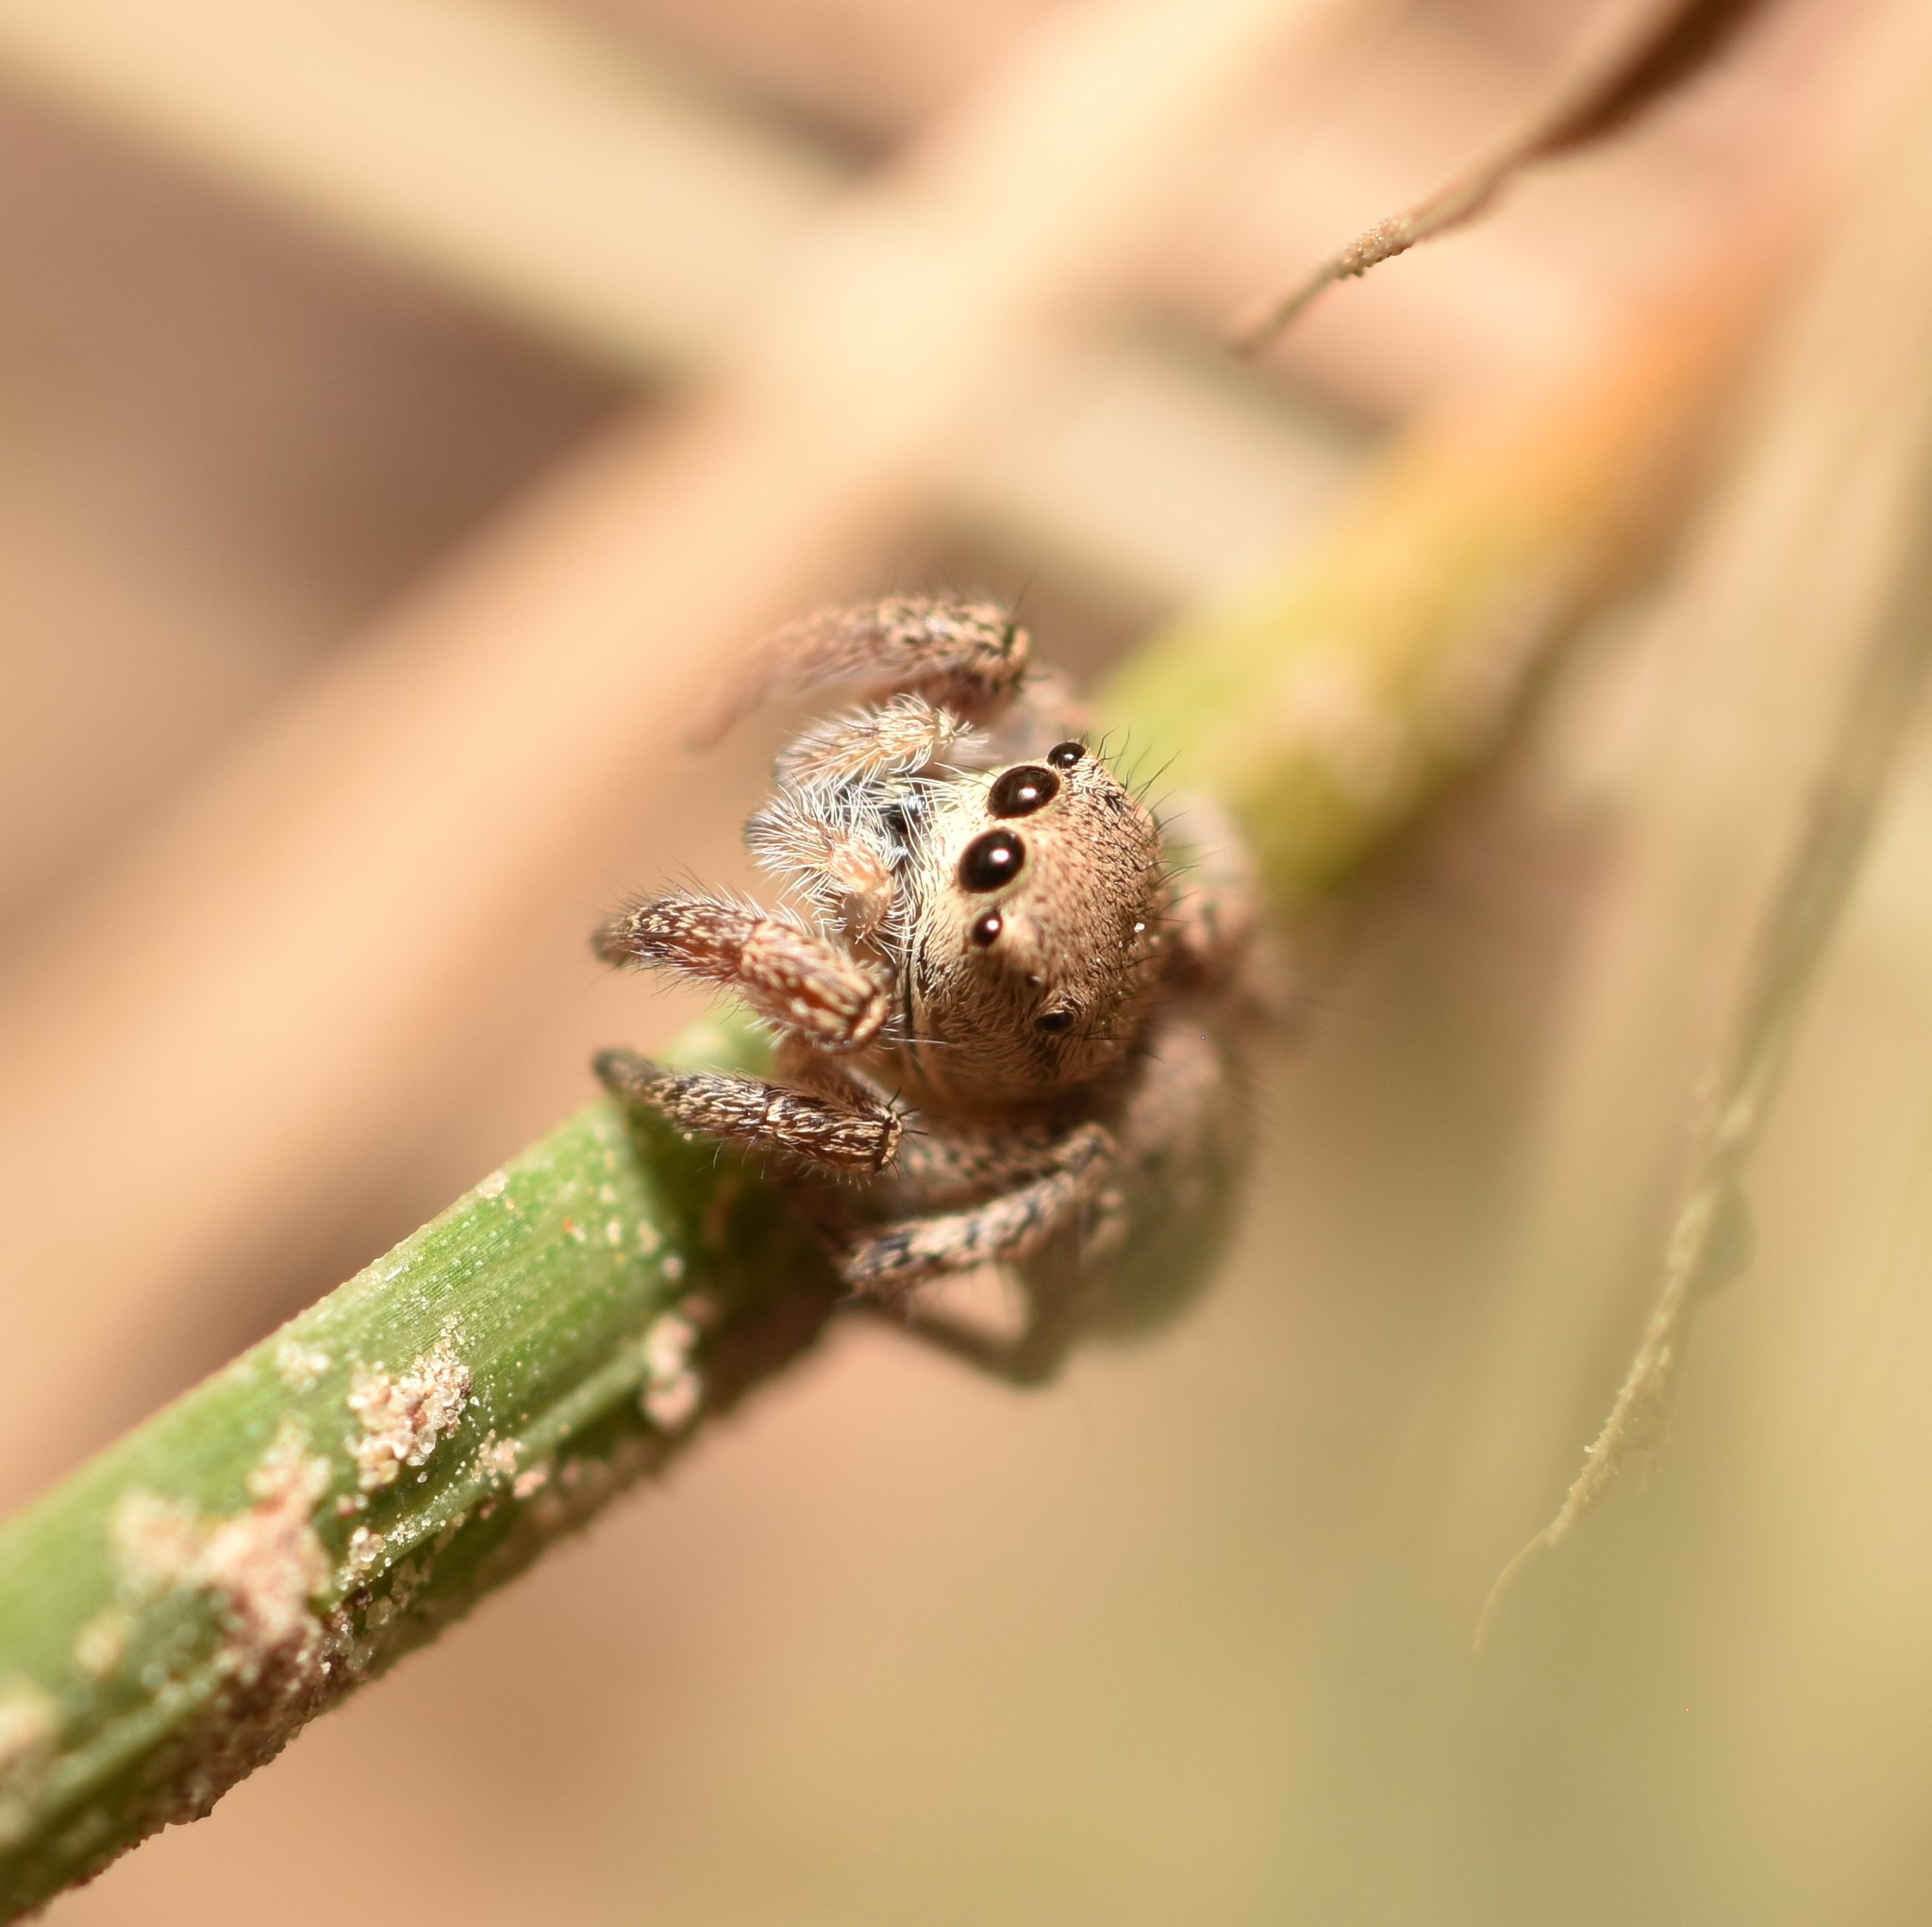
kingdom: Animalia
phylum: Arthropoda
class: Arachnida
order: Araneae
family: Salticidae
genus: Habronattus
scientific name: Habronattus coecatus
